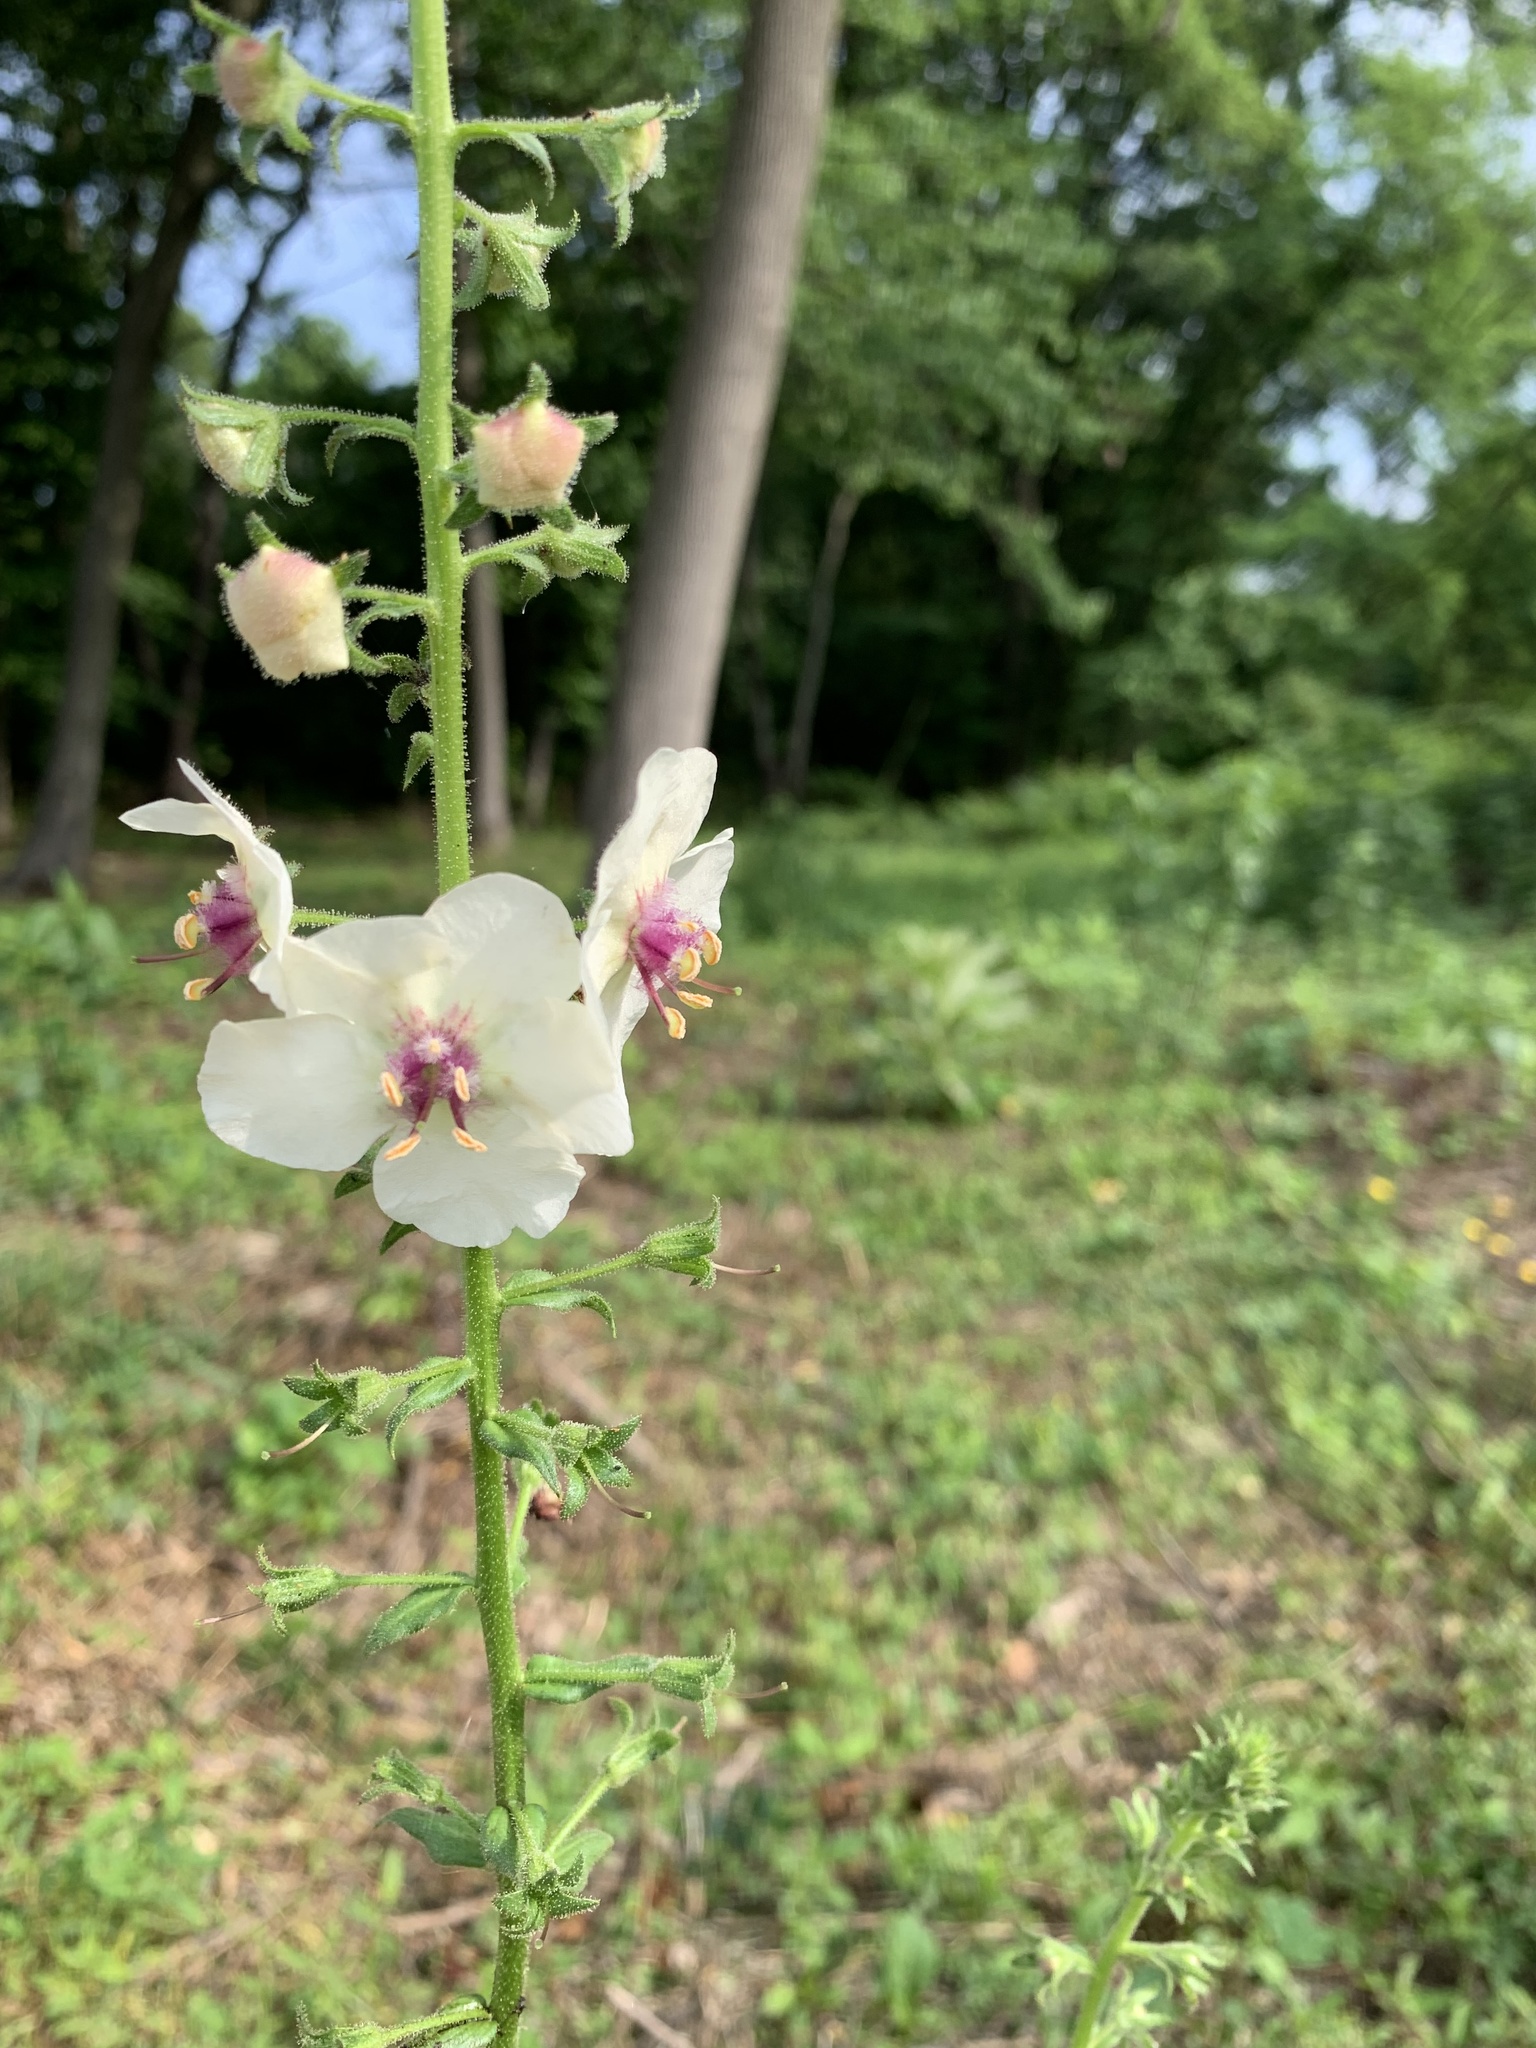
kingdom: Plantae
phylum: Tracheophyta
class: Magnoliopsida
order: Lamiales
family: Scrophulariaceae
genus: Verbascum
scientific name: Verbascum blattaria
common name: Moth mullein
